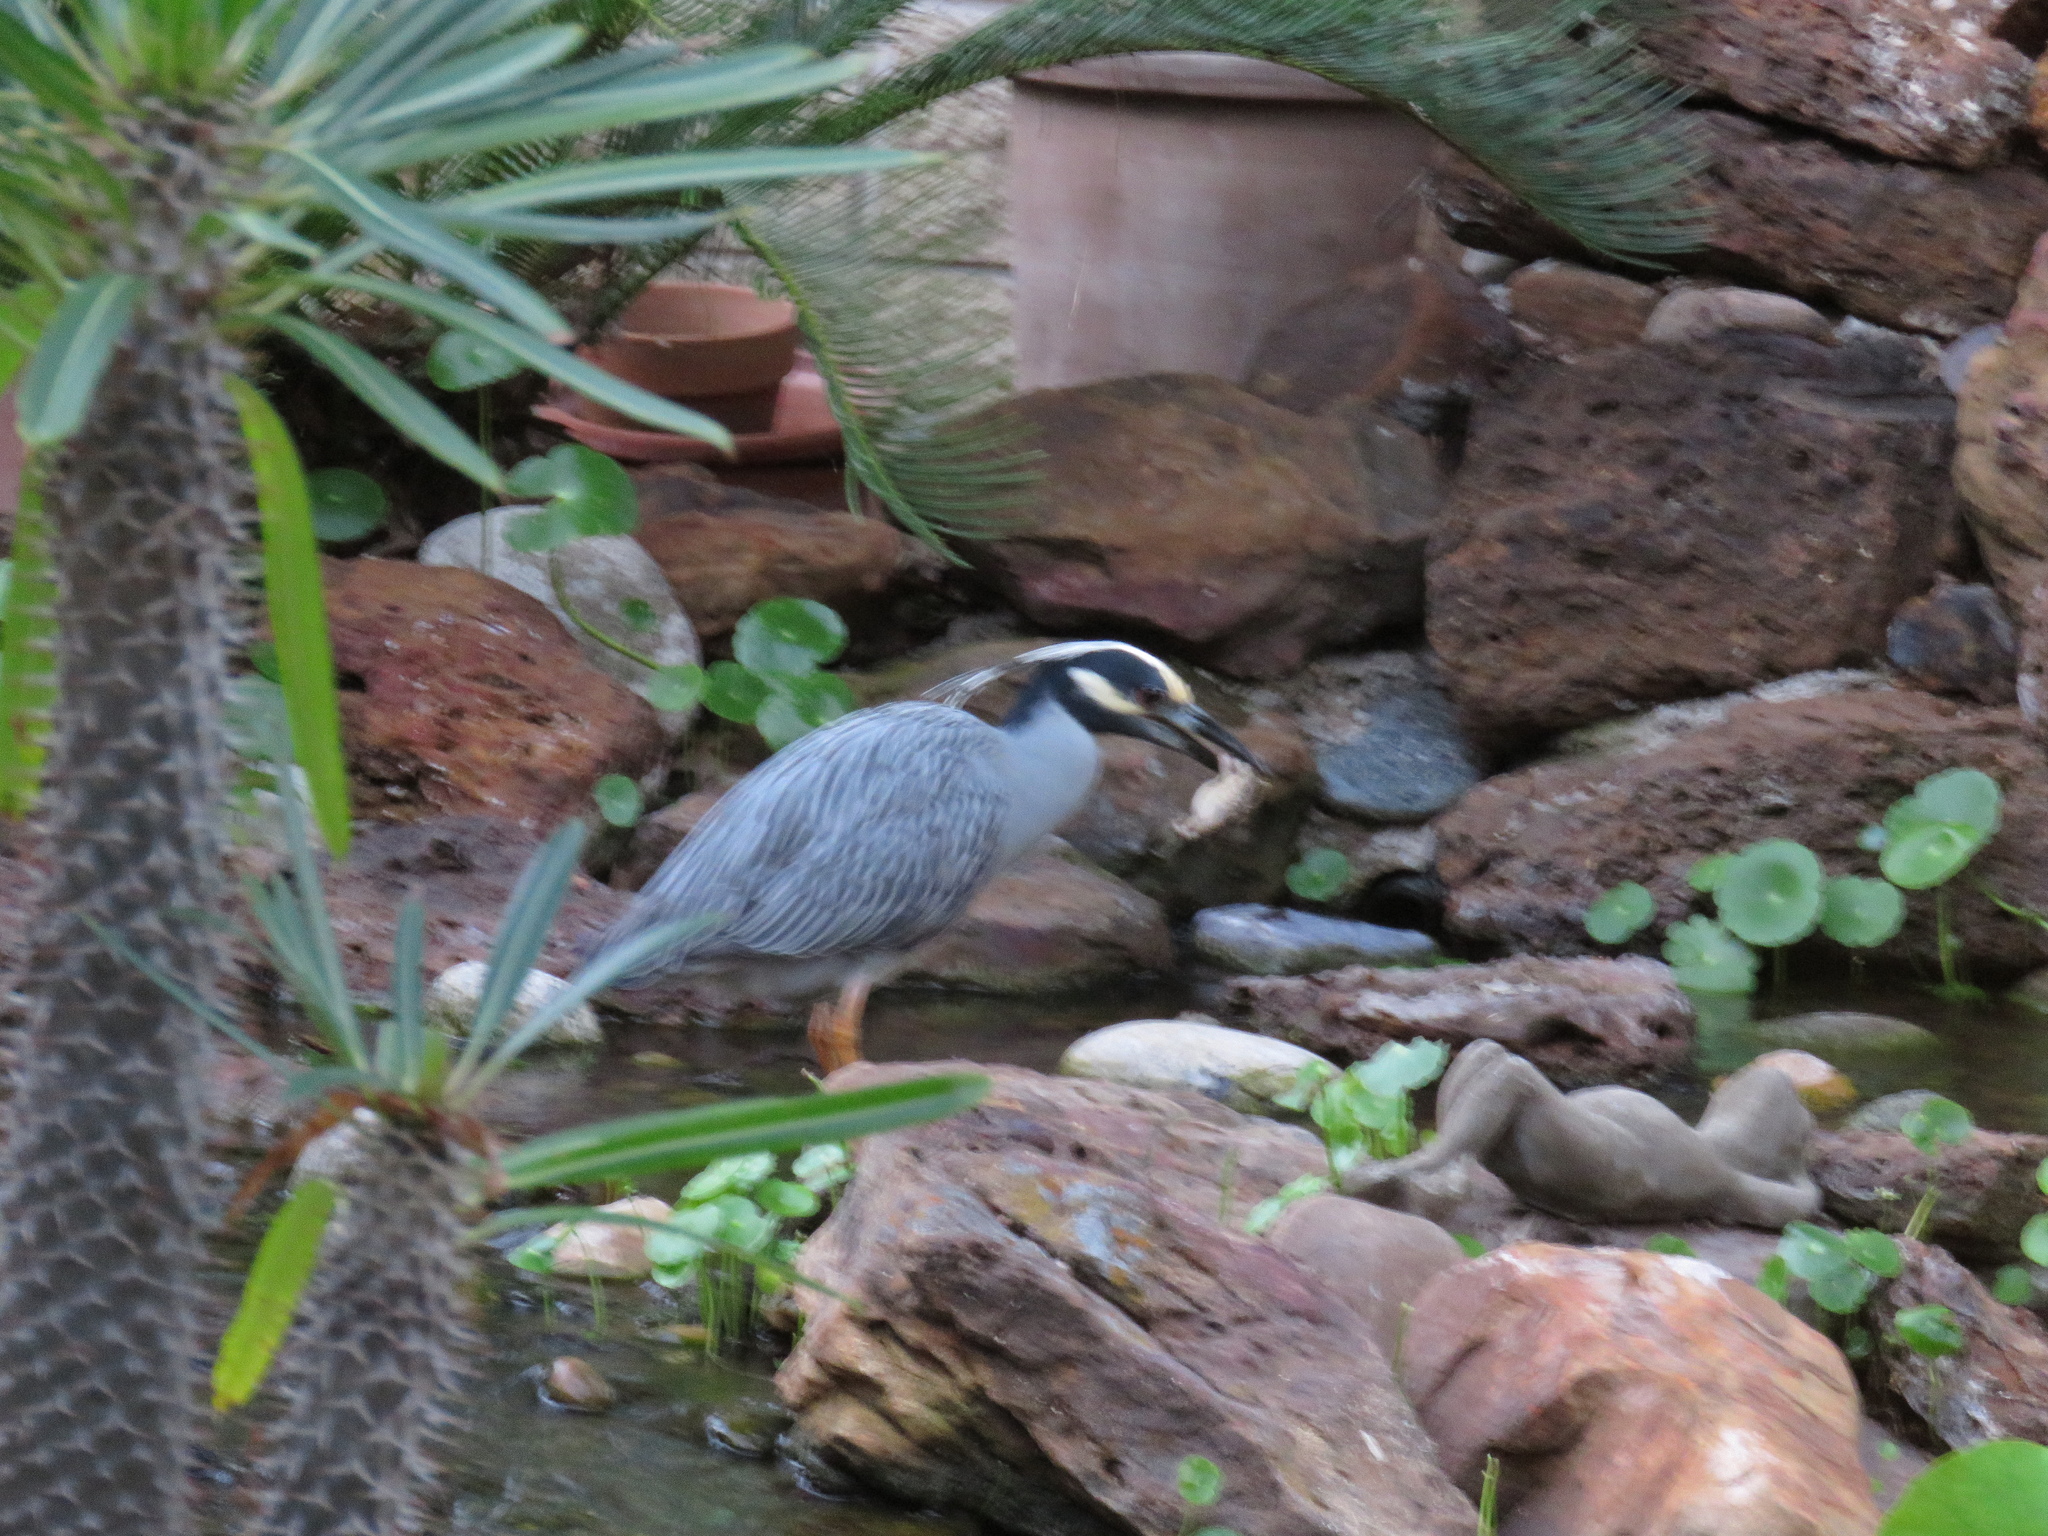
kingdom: Animalia
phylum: Chordata
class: Aves
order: Pelecaniformes
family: Ardeidae
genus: Nyctanassa
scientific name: Nyctanassa violacea
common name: Yellow-crowned night heron
